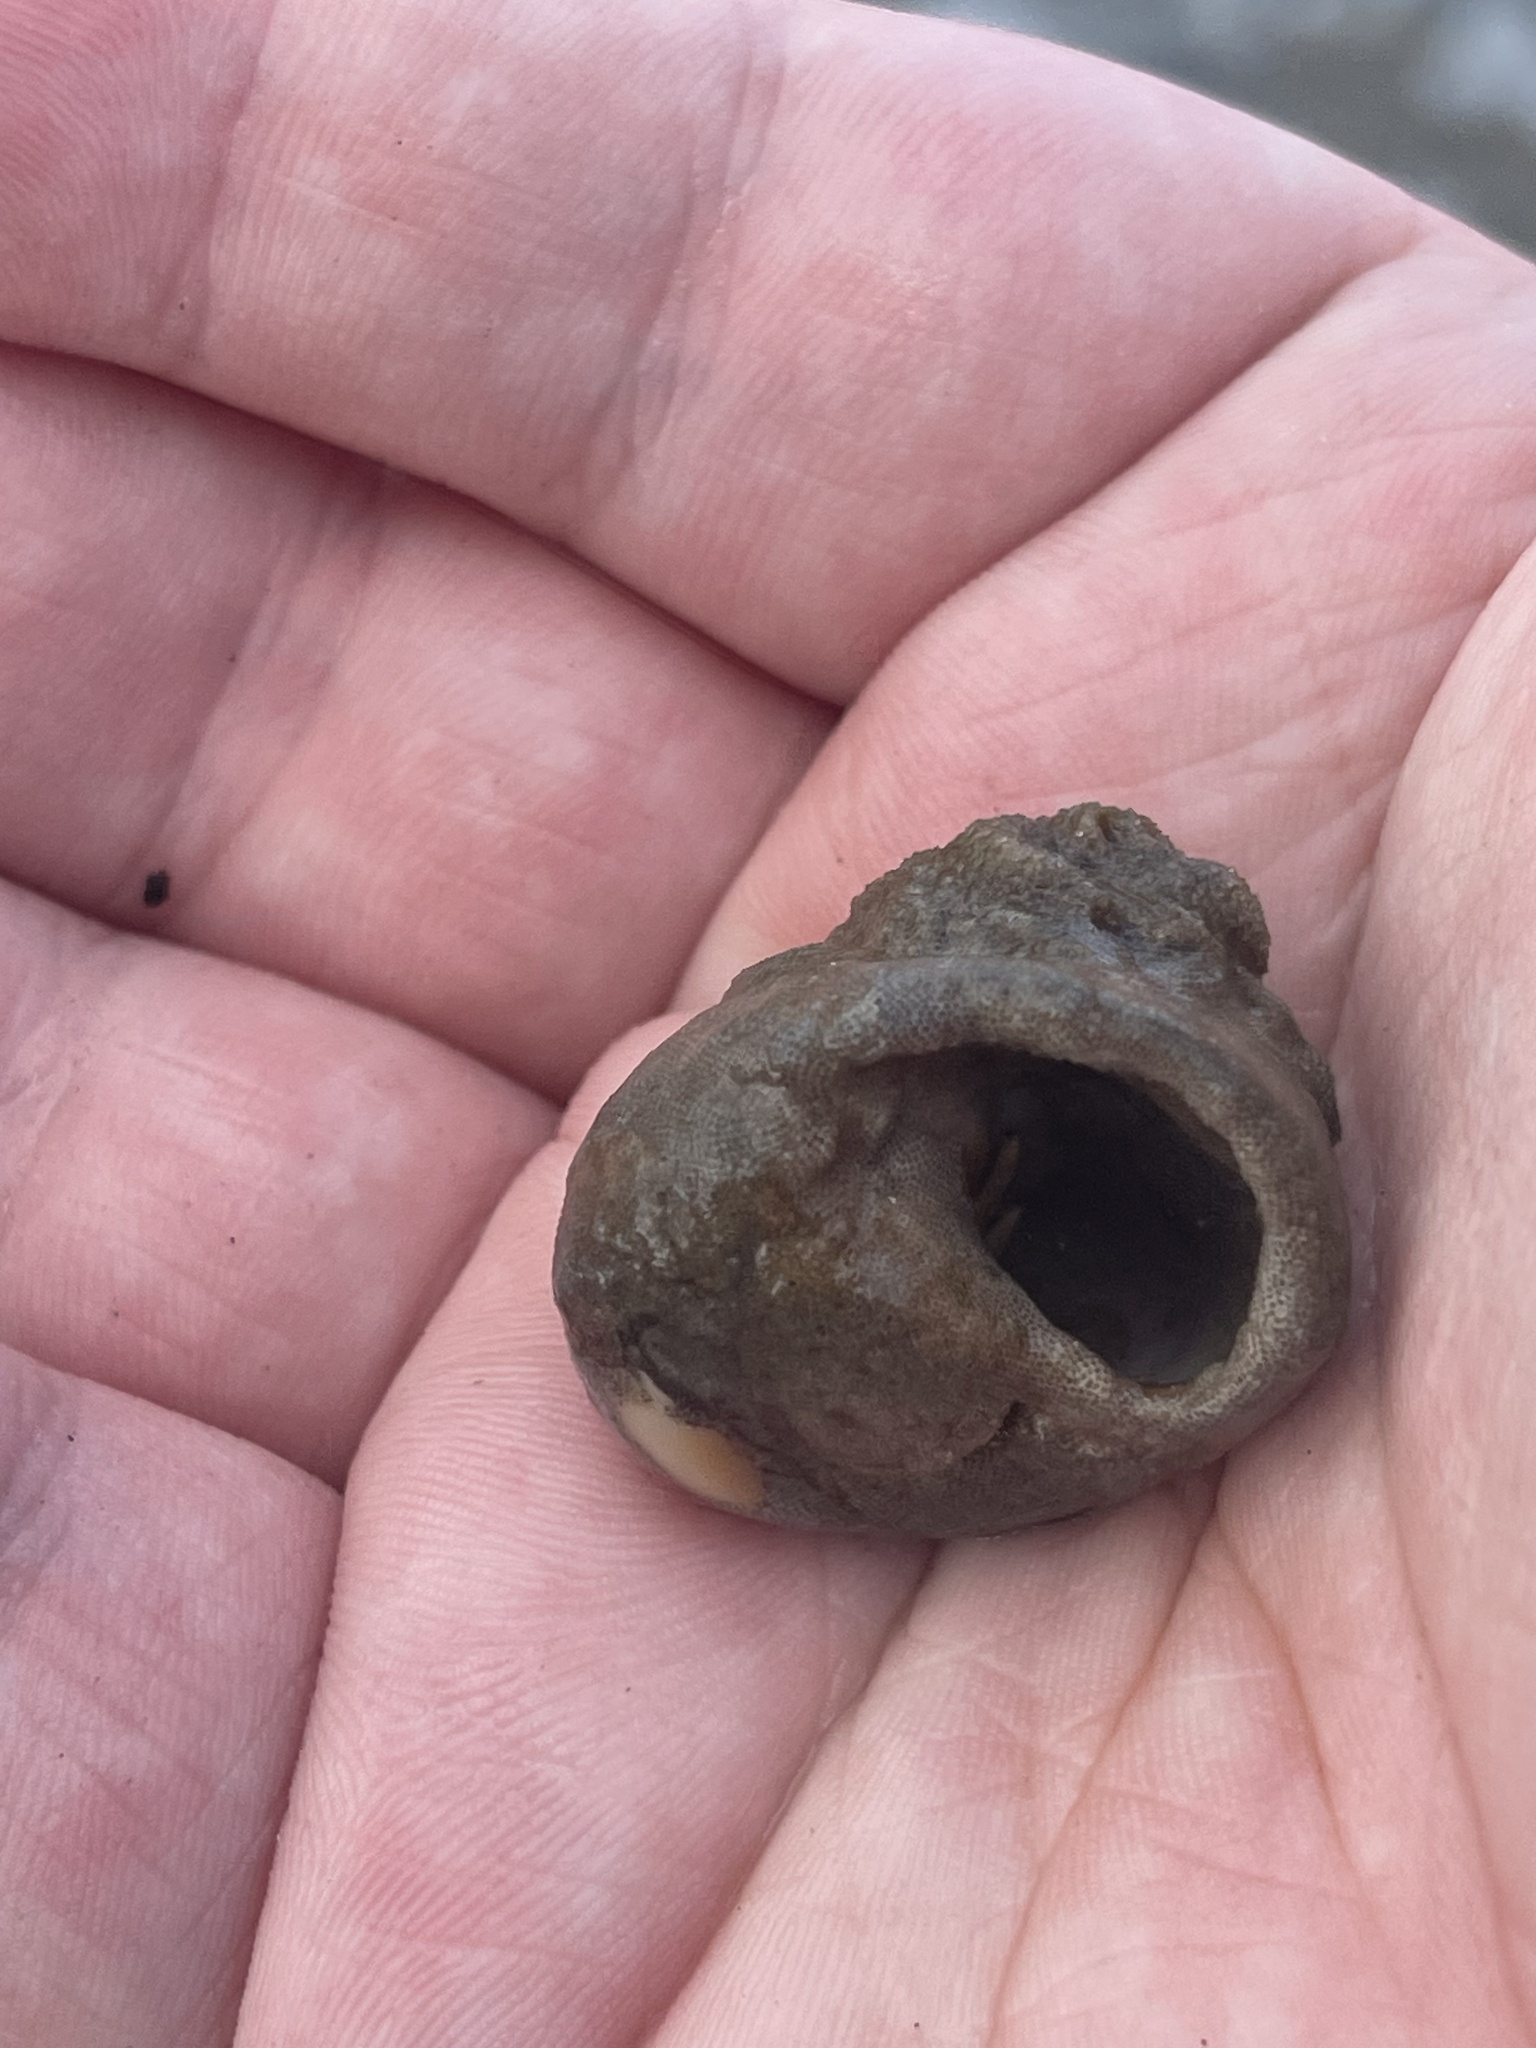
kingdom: Animalia
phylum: Mollusca
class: Gastropoda
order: Littorinimorpha
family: Naticidae
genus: Neverita
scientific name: Neverita duplicata
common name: Lobed moonsnail
